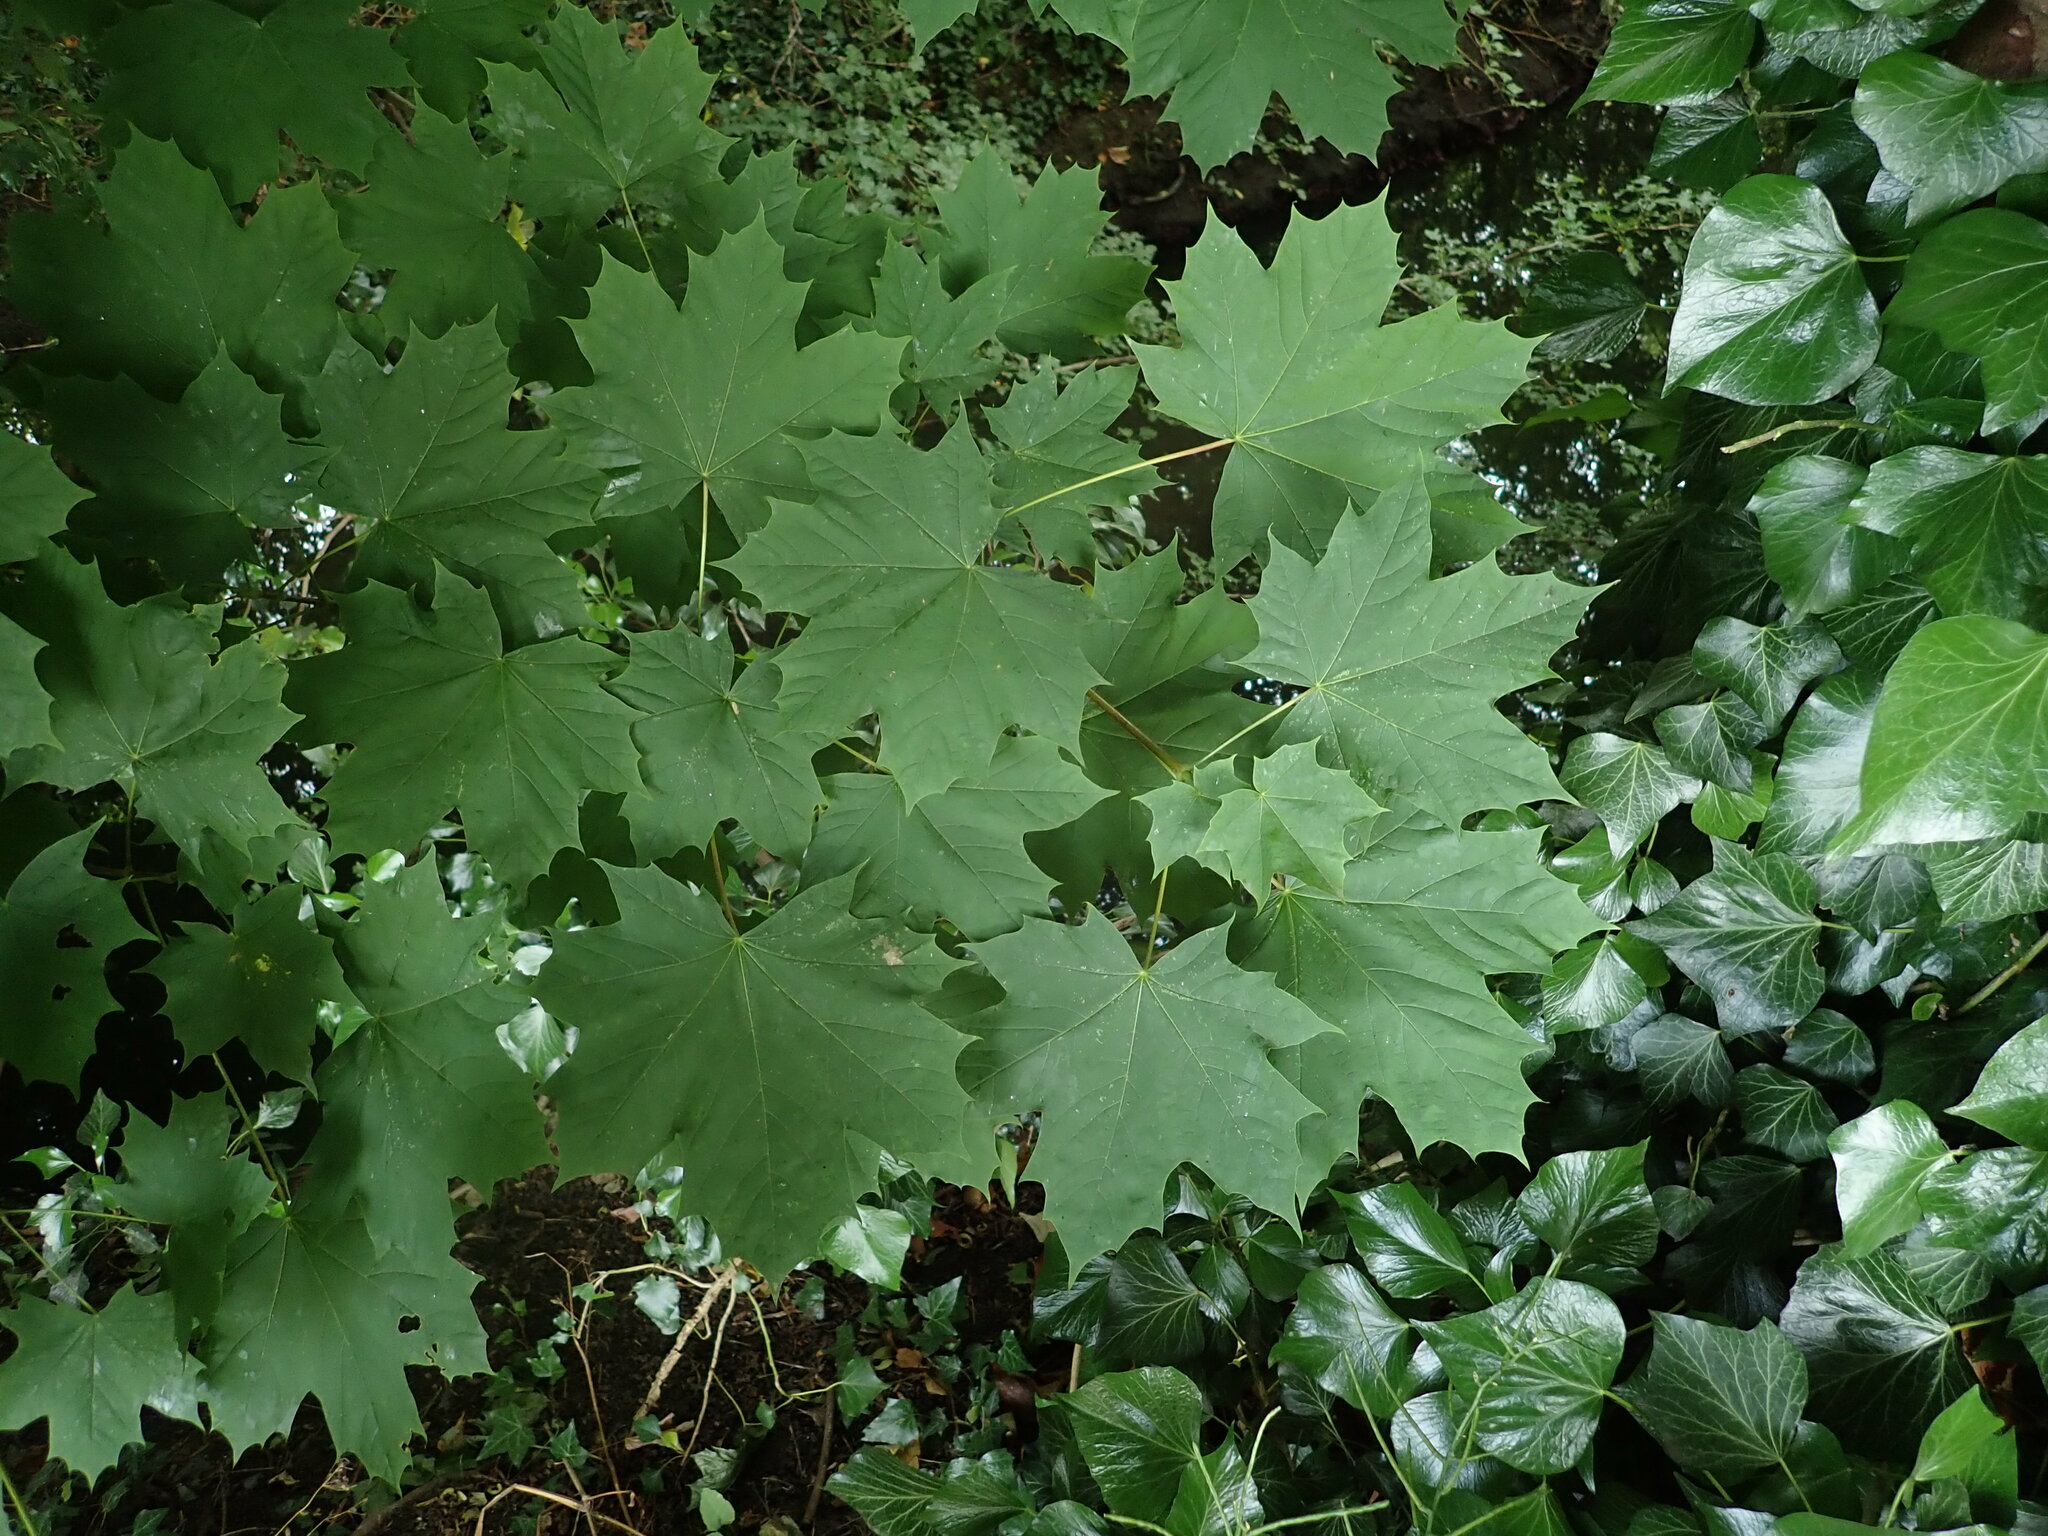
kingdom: Plantae
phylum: Tracheophyta
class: Magnoliopsida
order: Sapindales
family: Sapindaceae
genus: Acer
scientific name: Acer platanoides
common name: Norway maple
